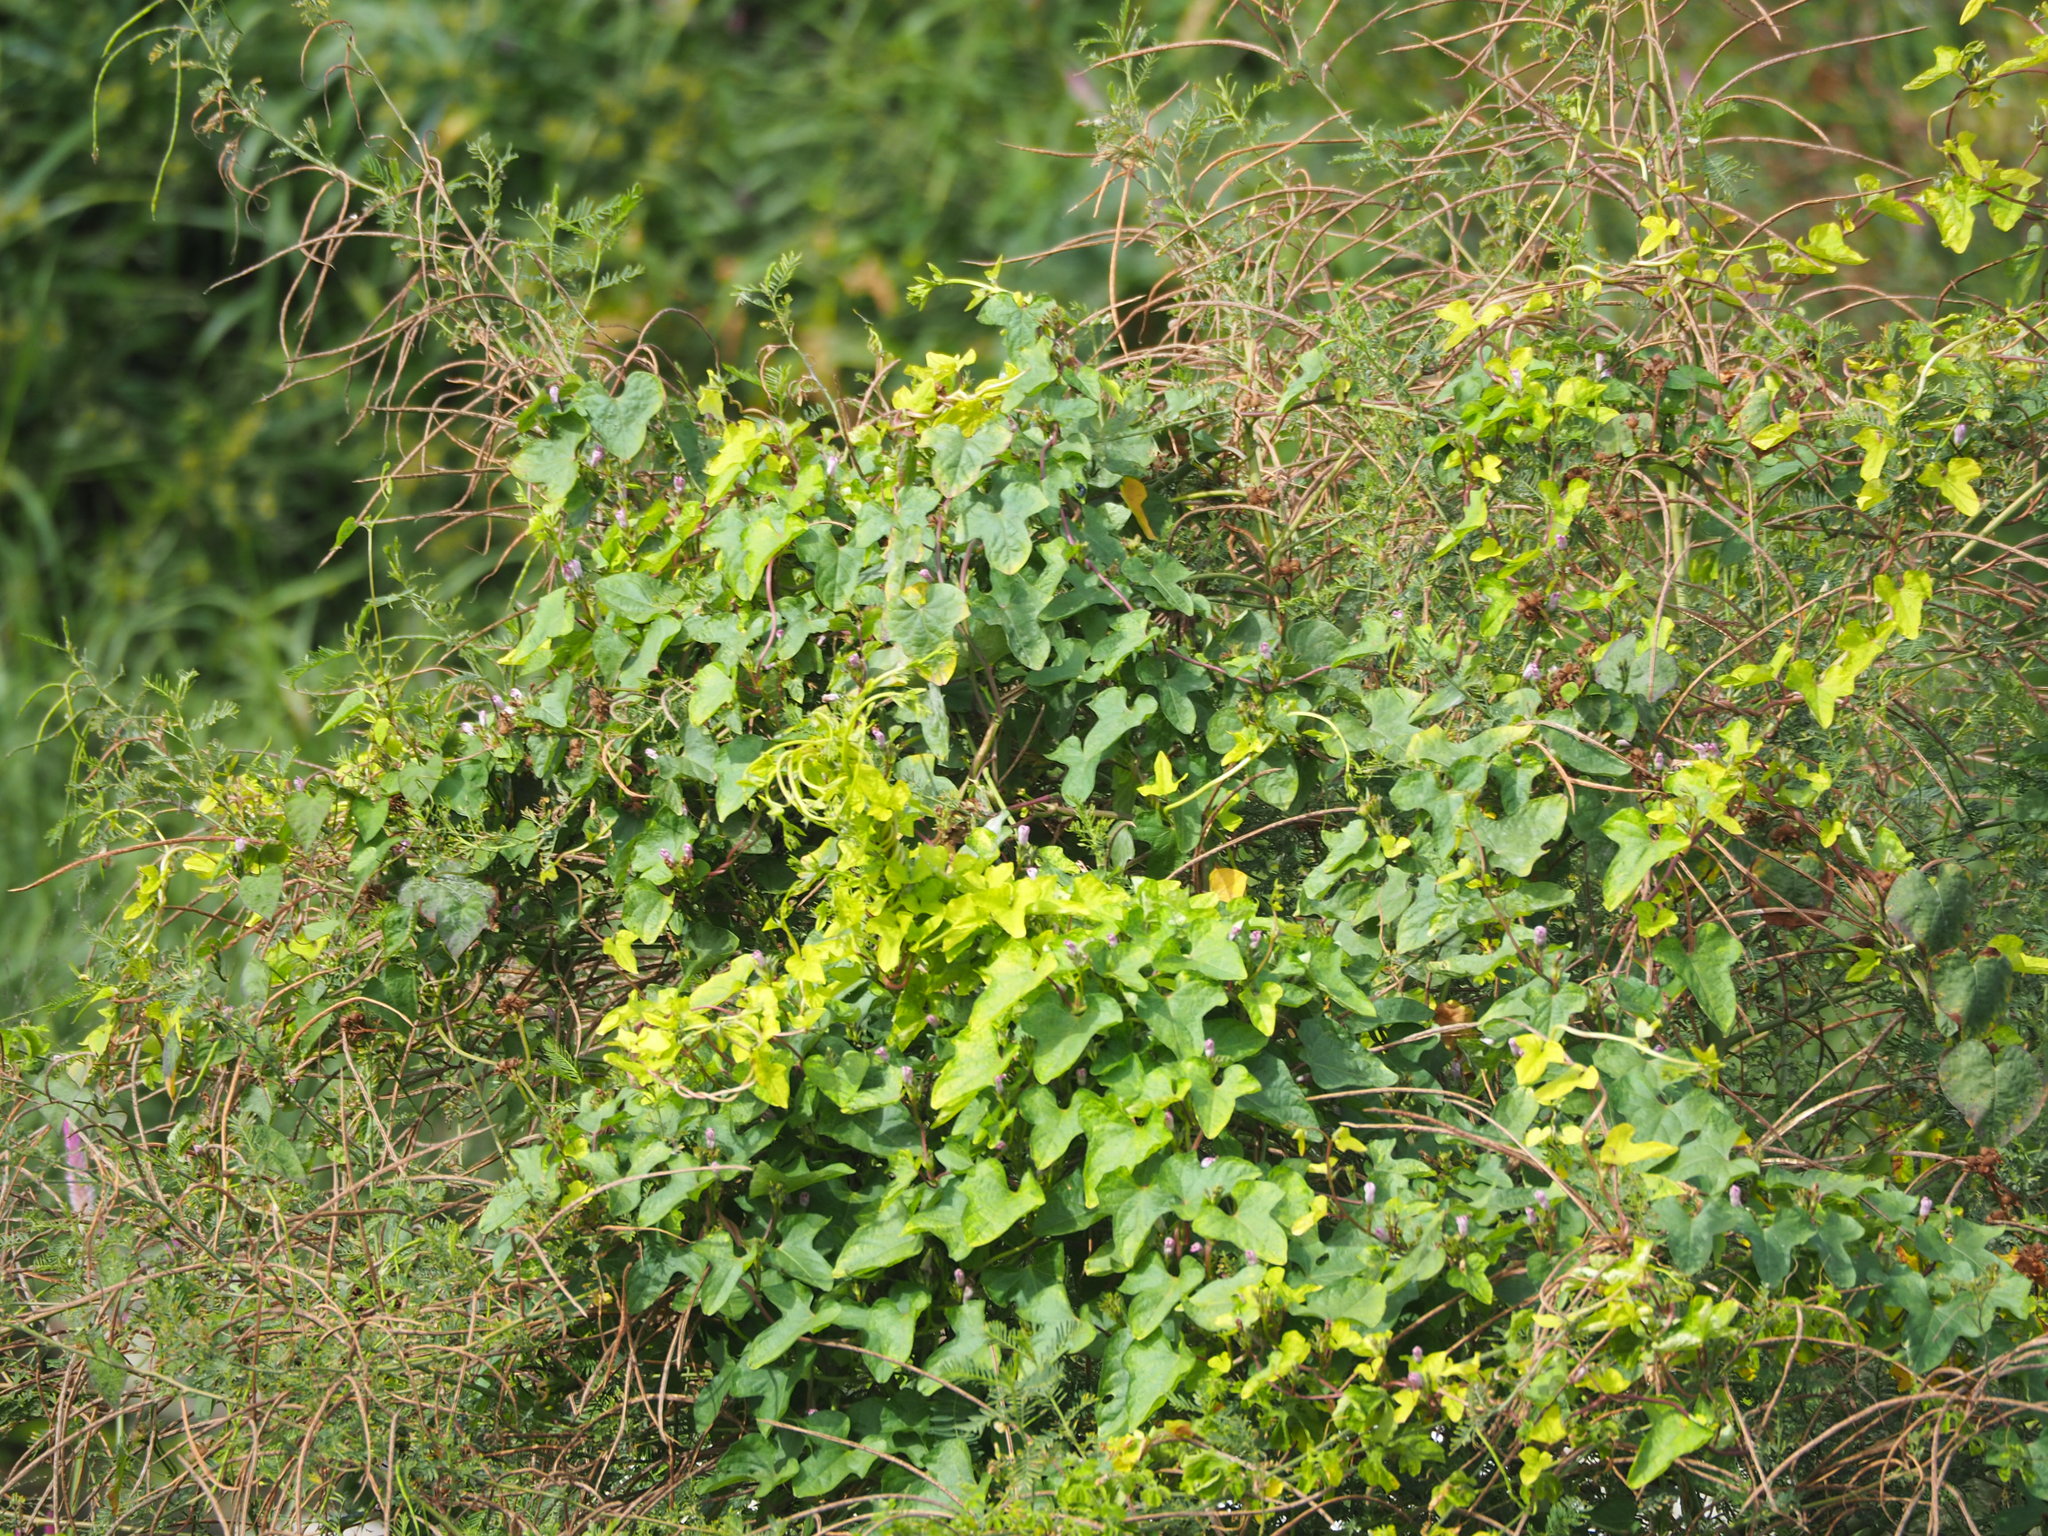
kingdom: Plantae
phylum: Tracheophyta
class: Magnoliopsida
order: Solanales
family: Convolvulaceae
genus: Ipomoea
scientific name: Ipomoea triloba
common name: Little-bell
